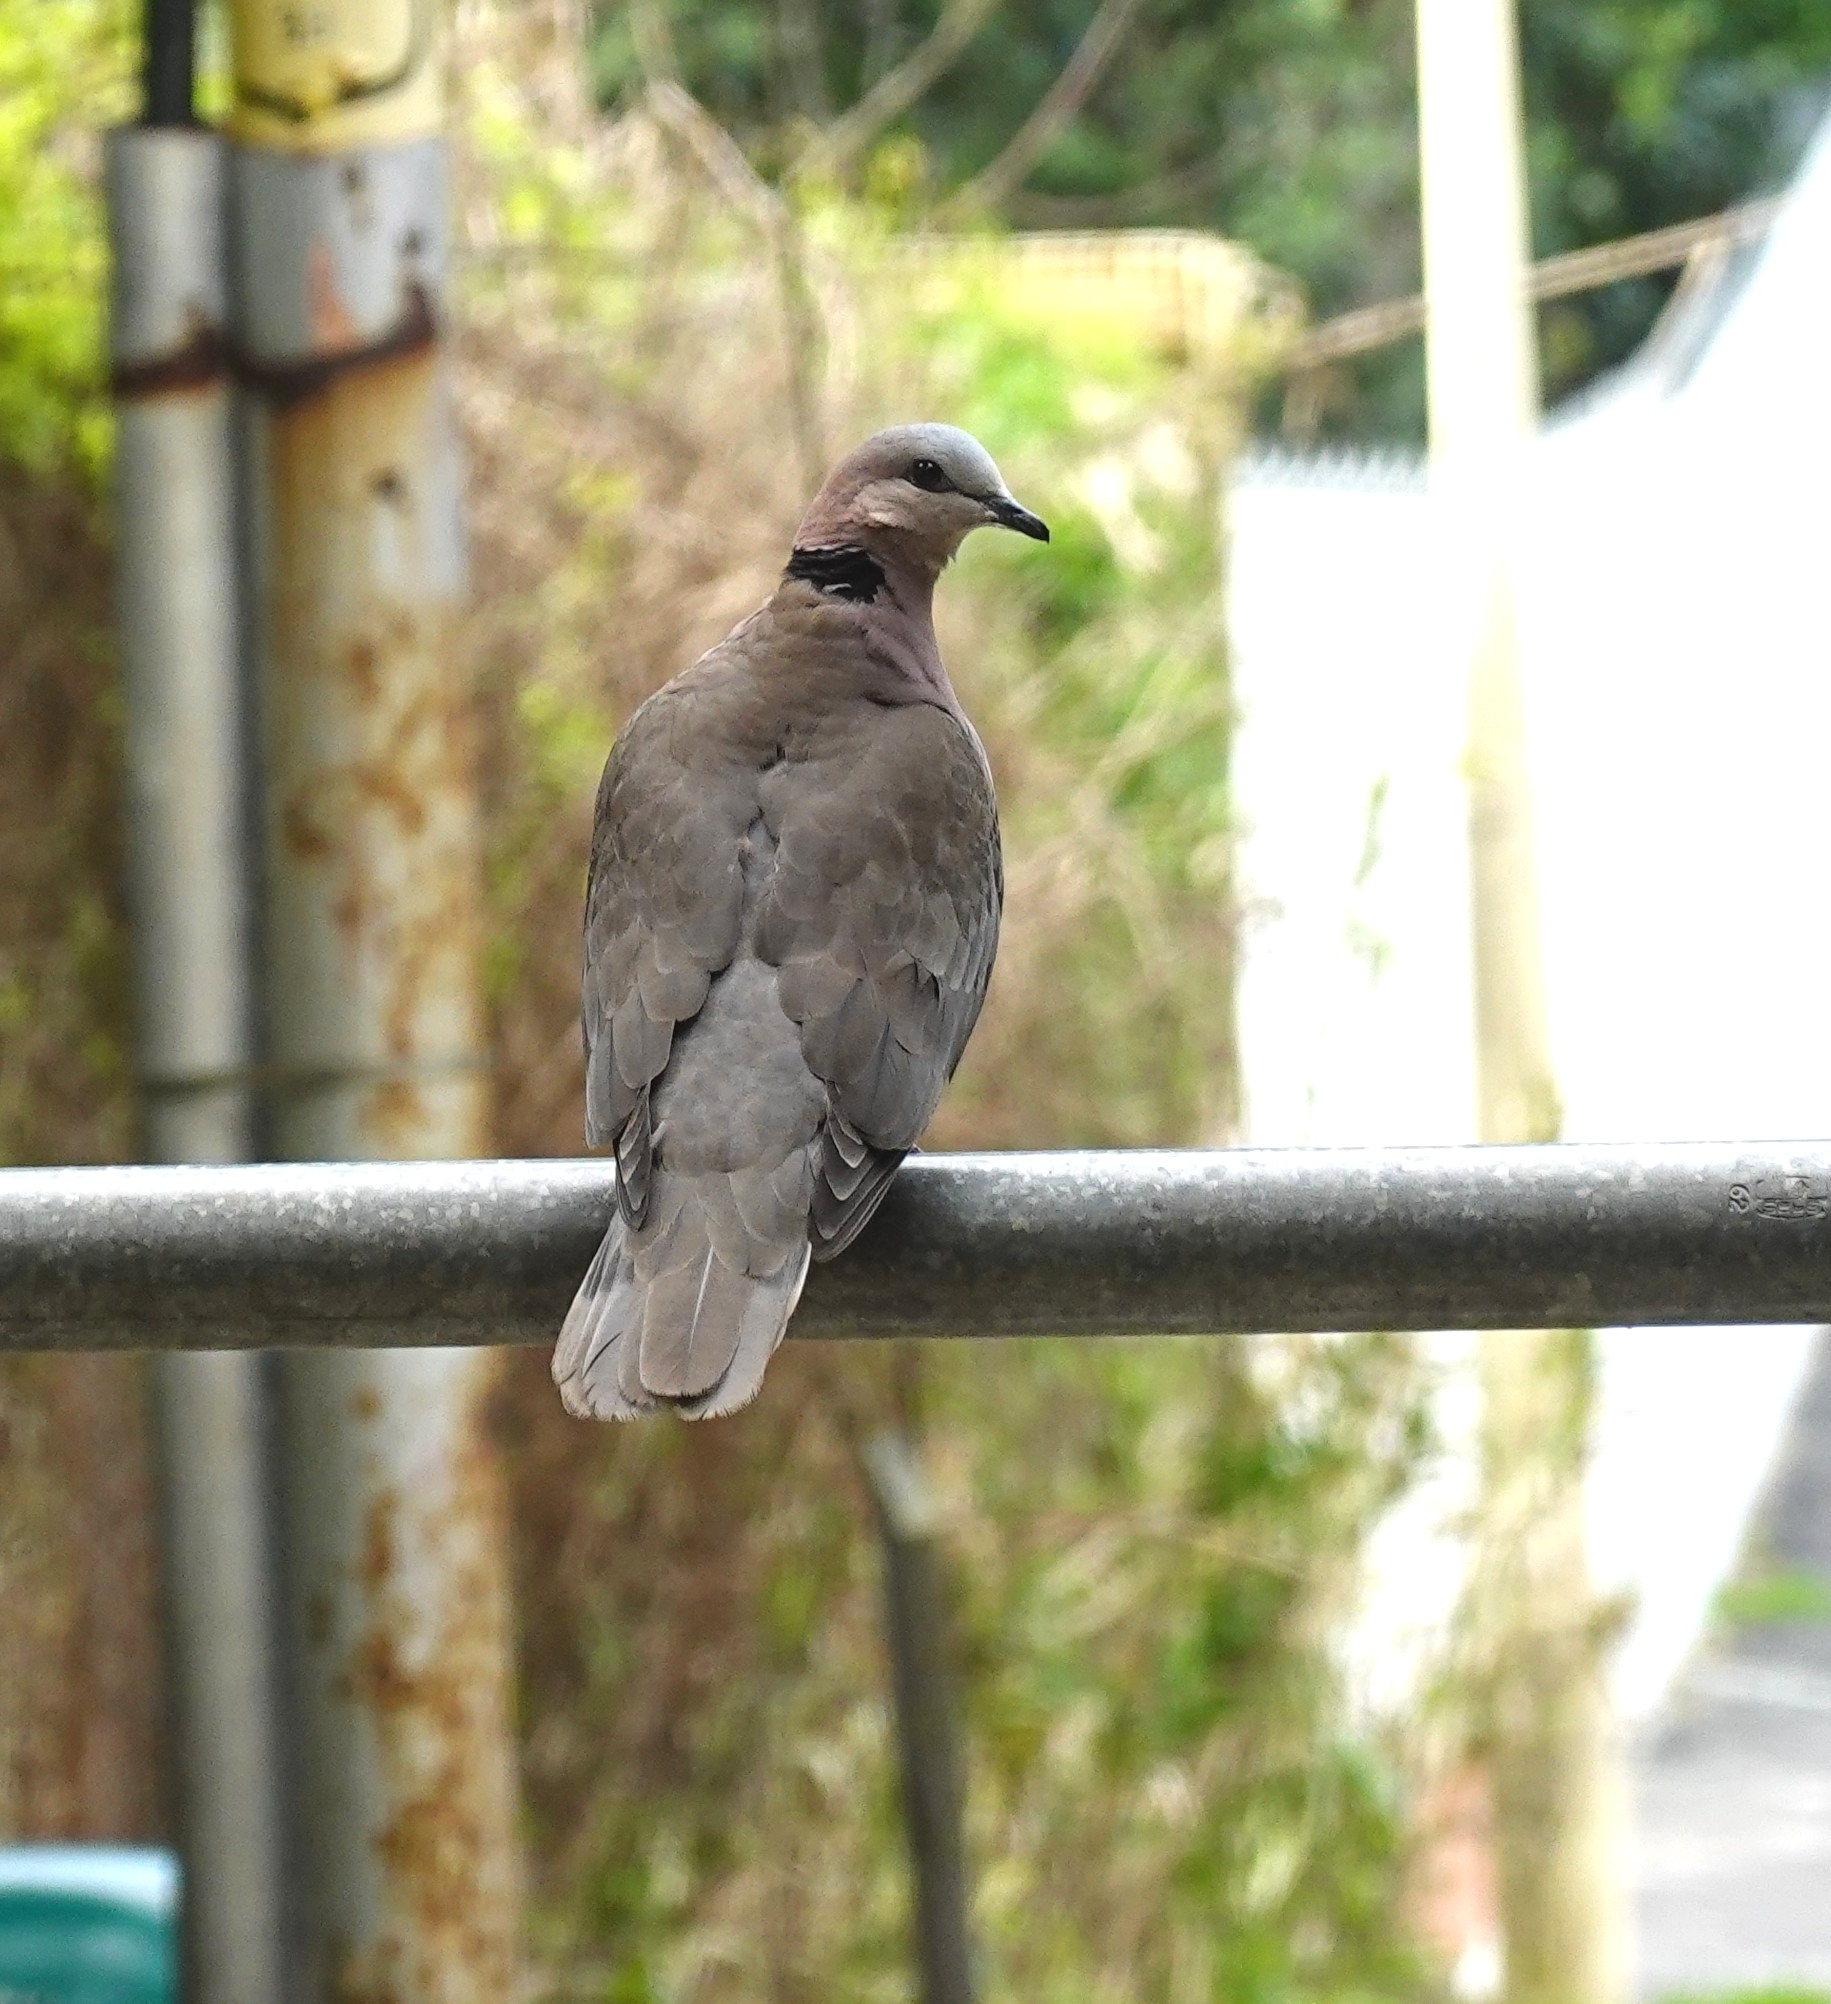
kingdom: Animalia
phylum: Chordata
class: Aves
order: Columbiformes
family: Columbidae
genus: Streptopelia
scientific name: Streptopelia semitorquata
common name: Red-eyed dove
